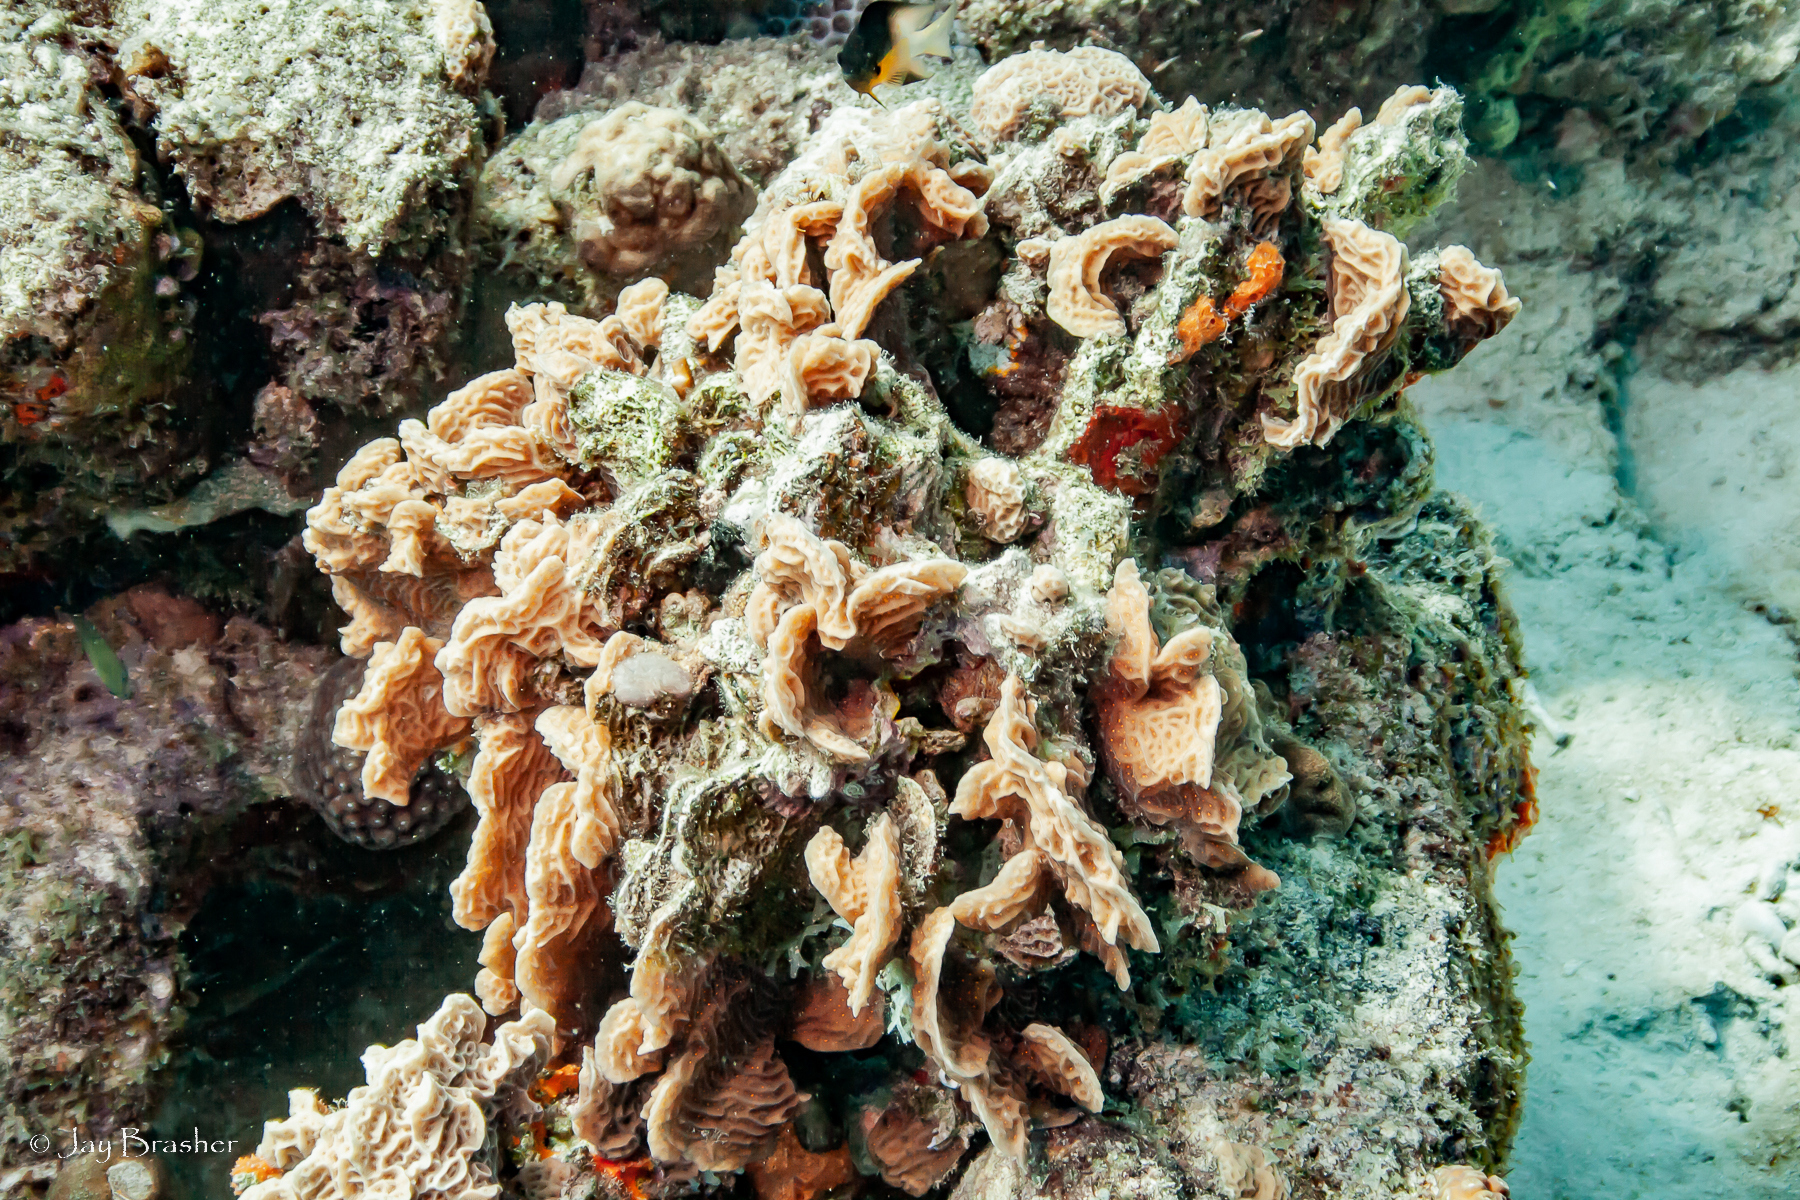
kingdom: Animalia
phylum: Cnidaria
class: Anthozoa
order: Scleractinia
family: Agariciidae
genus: Agaricia
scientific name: Agaricia agaricites
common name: Lettuce coral
